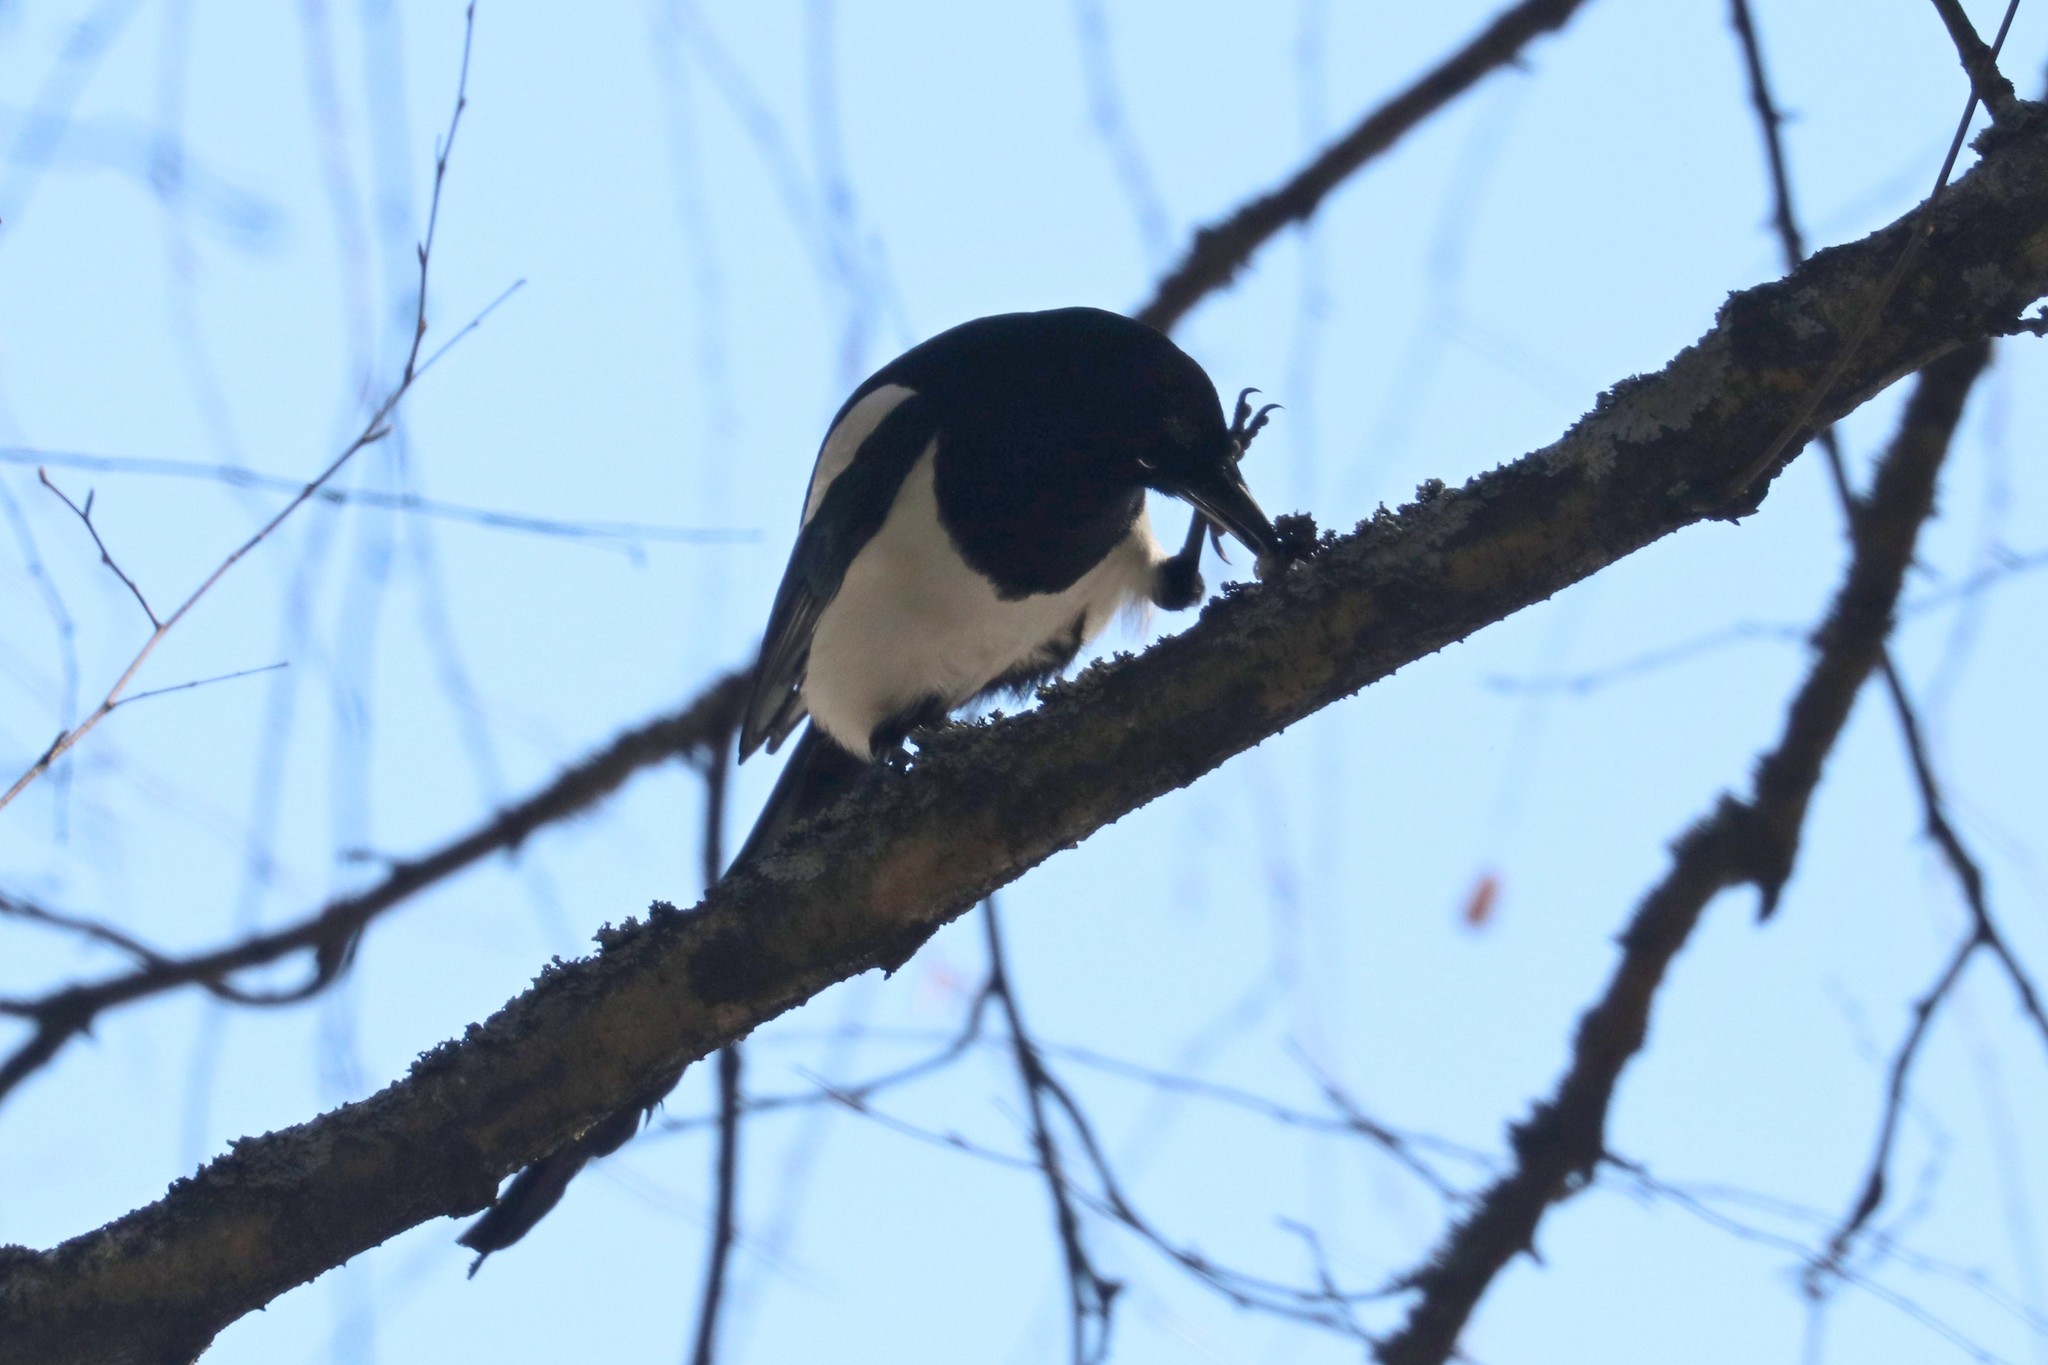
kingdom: Animalia
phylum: Chordata
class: Aves
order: Passeriformes
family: Corvidae
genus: Pica
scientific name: Pica pica
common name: Eurasian magpie
